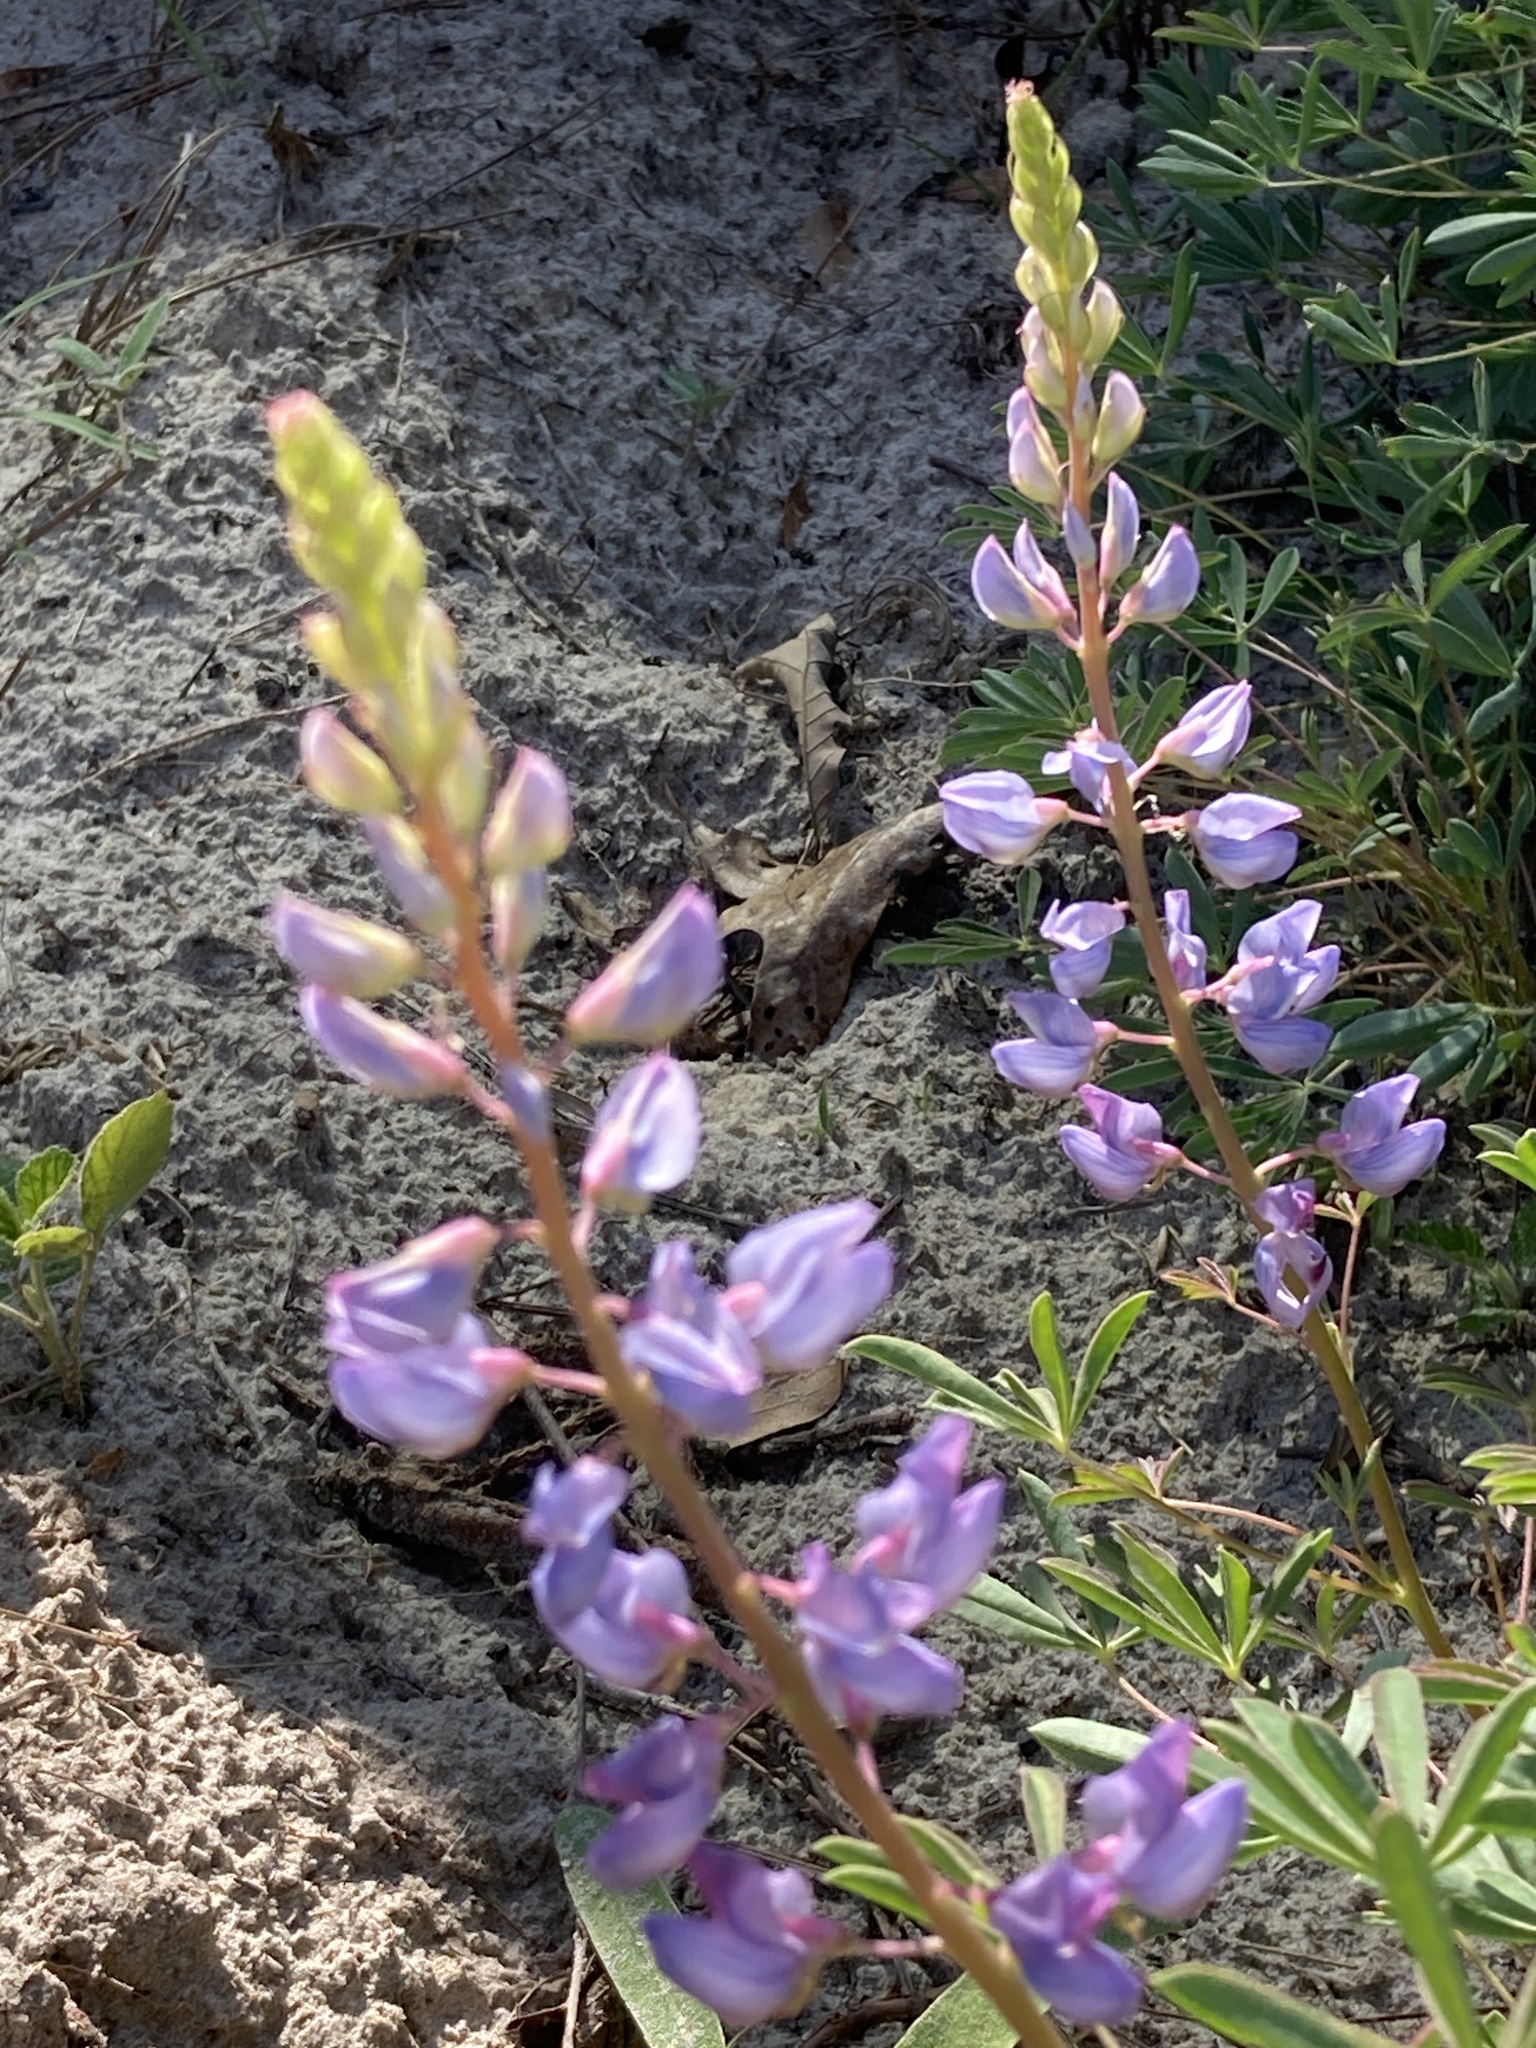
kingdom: Plantae
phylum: Tracheophyta
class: Magnoliopsida
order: Fabales
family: Fabaceae
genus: Lupinus
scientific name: Lupinus perennis
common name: Sundial lupine
